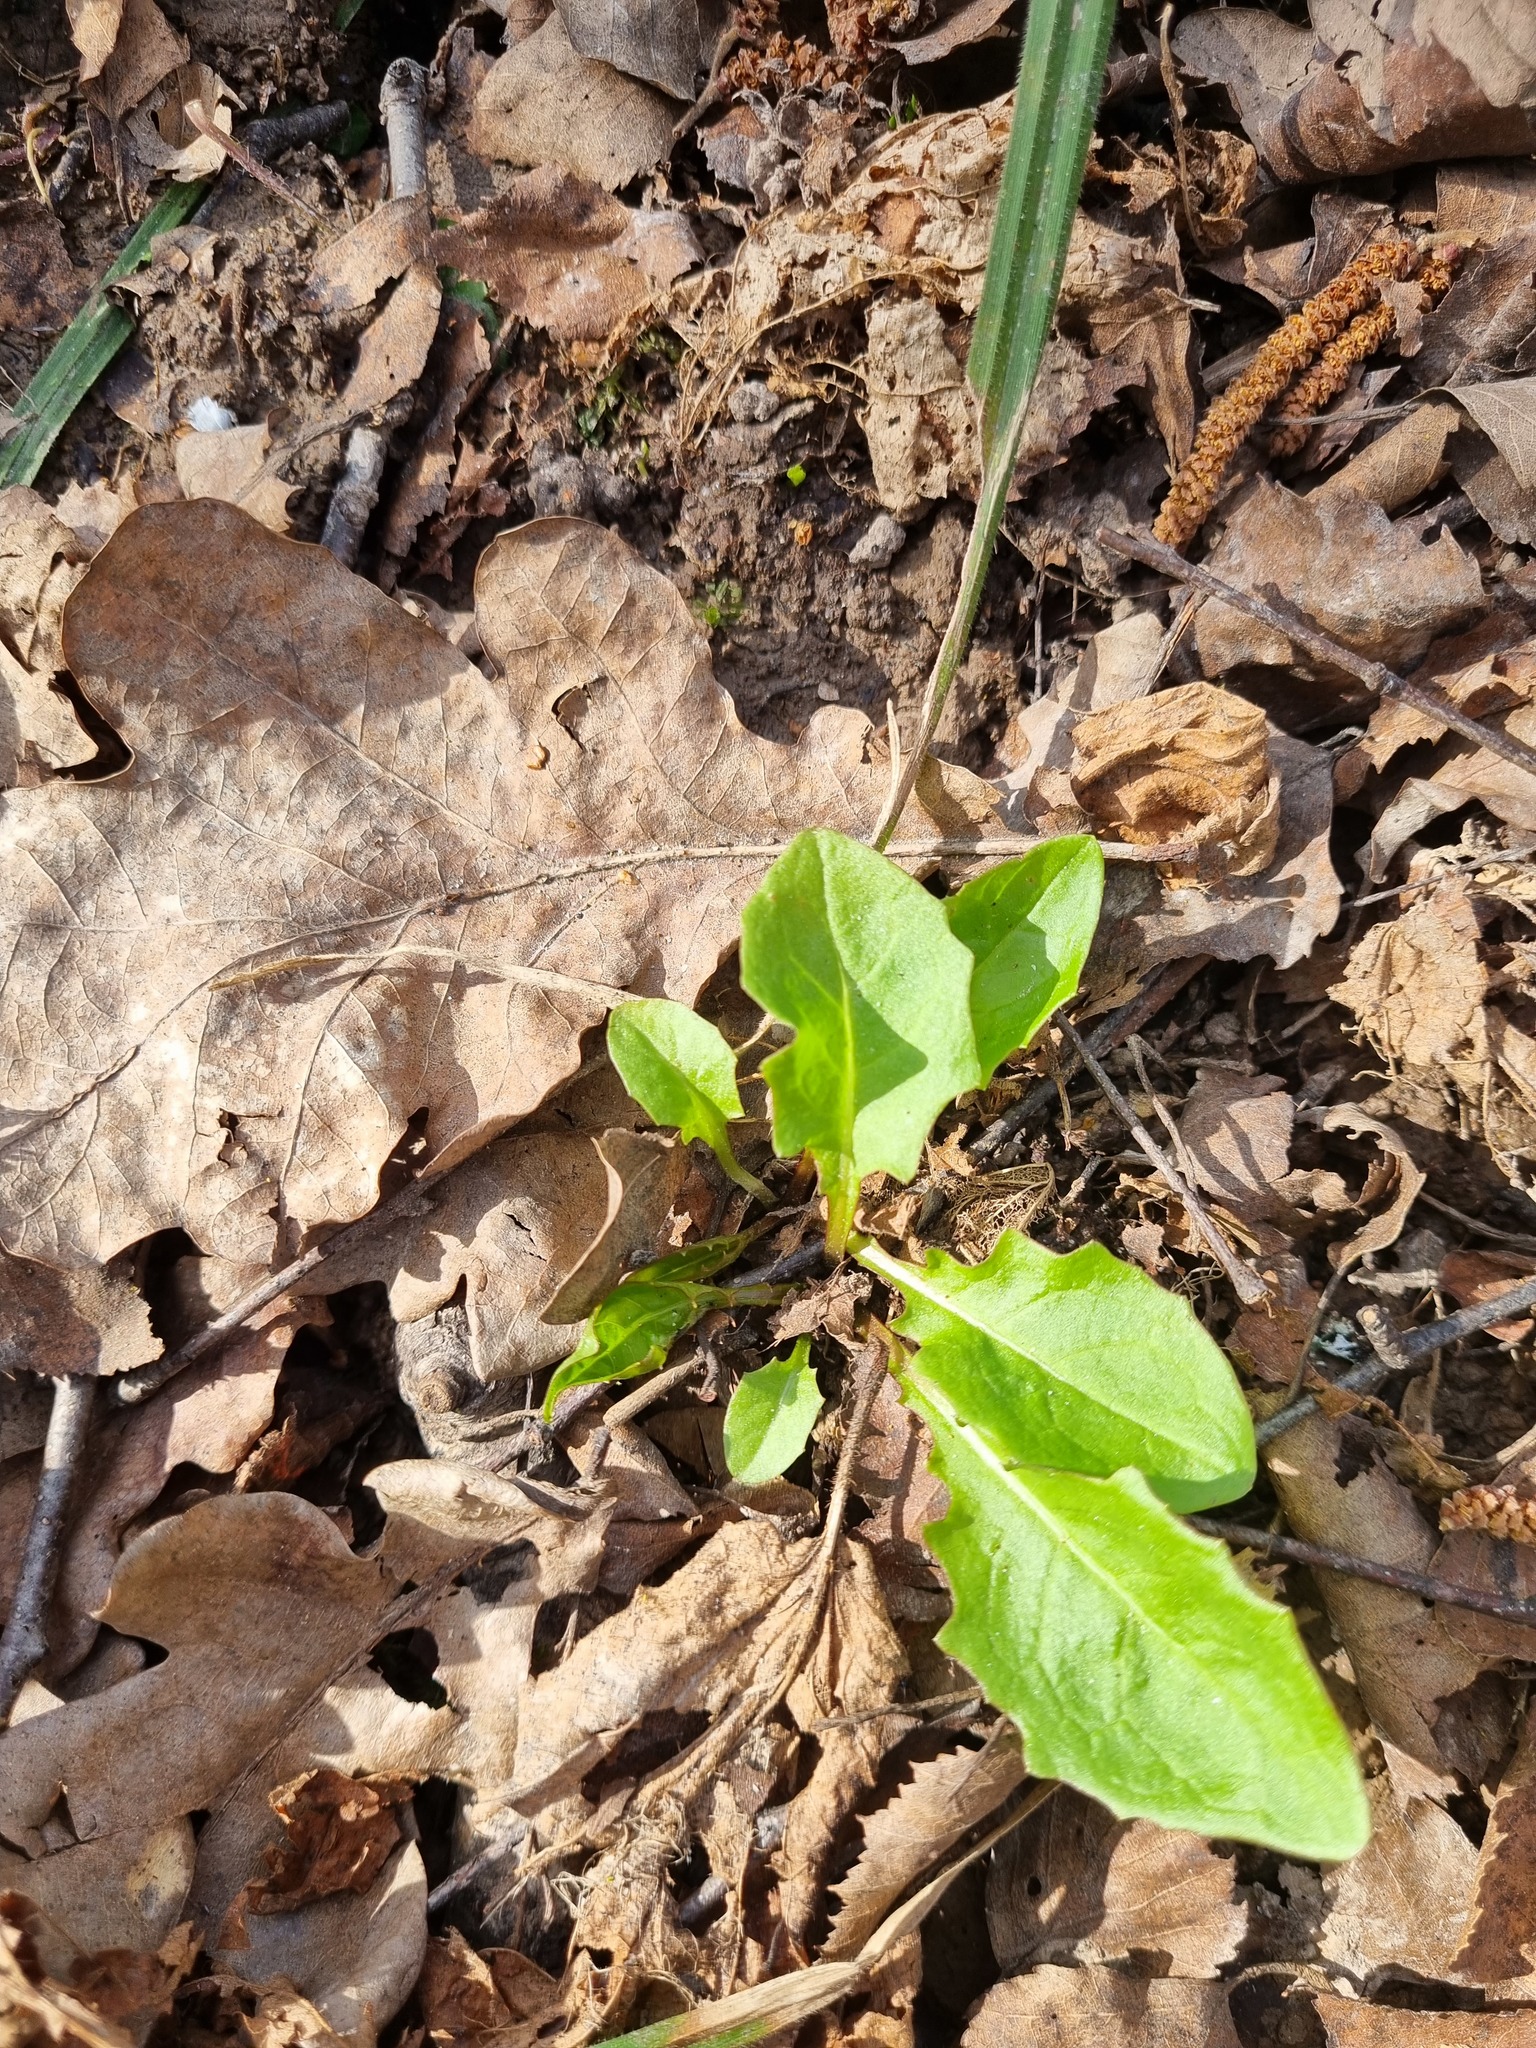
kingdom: Plantae
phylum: Tracheophyta
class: Magnoliopsida
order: Asterales
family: Asteraceae
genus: Crepis
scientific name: Crepis paludosa
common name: Marsh hawk's-beard
